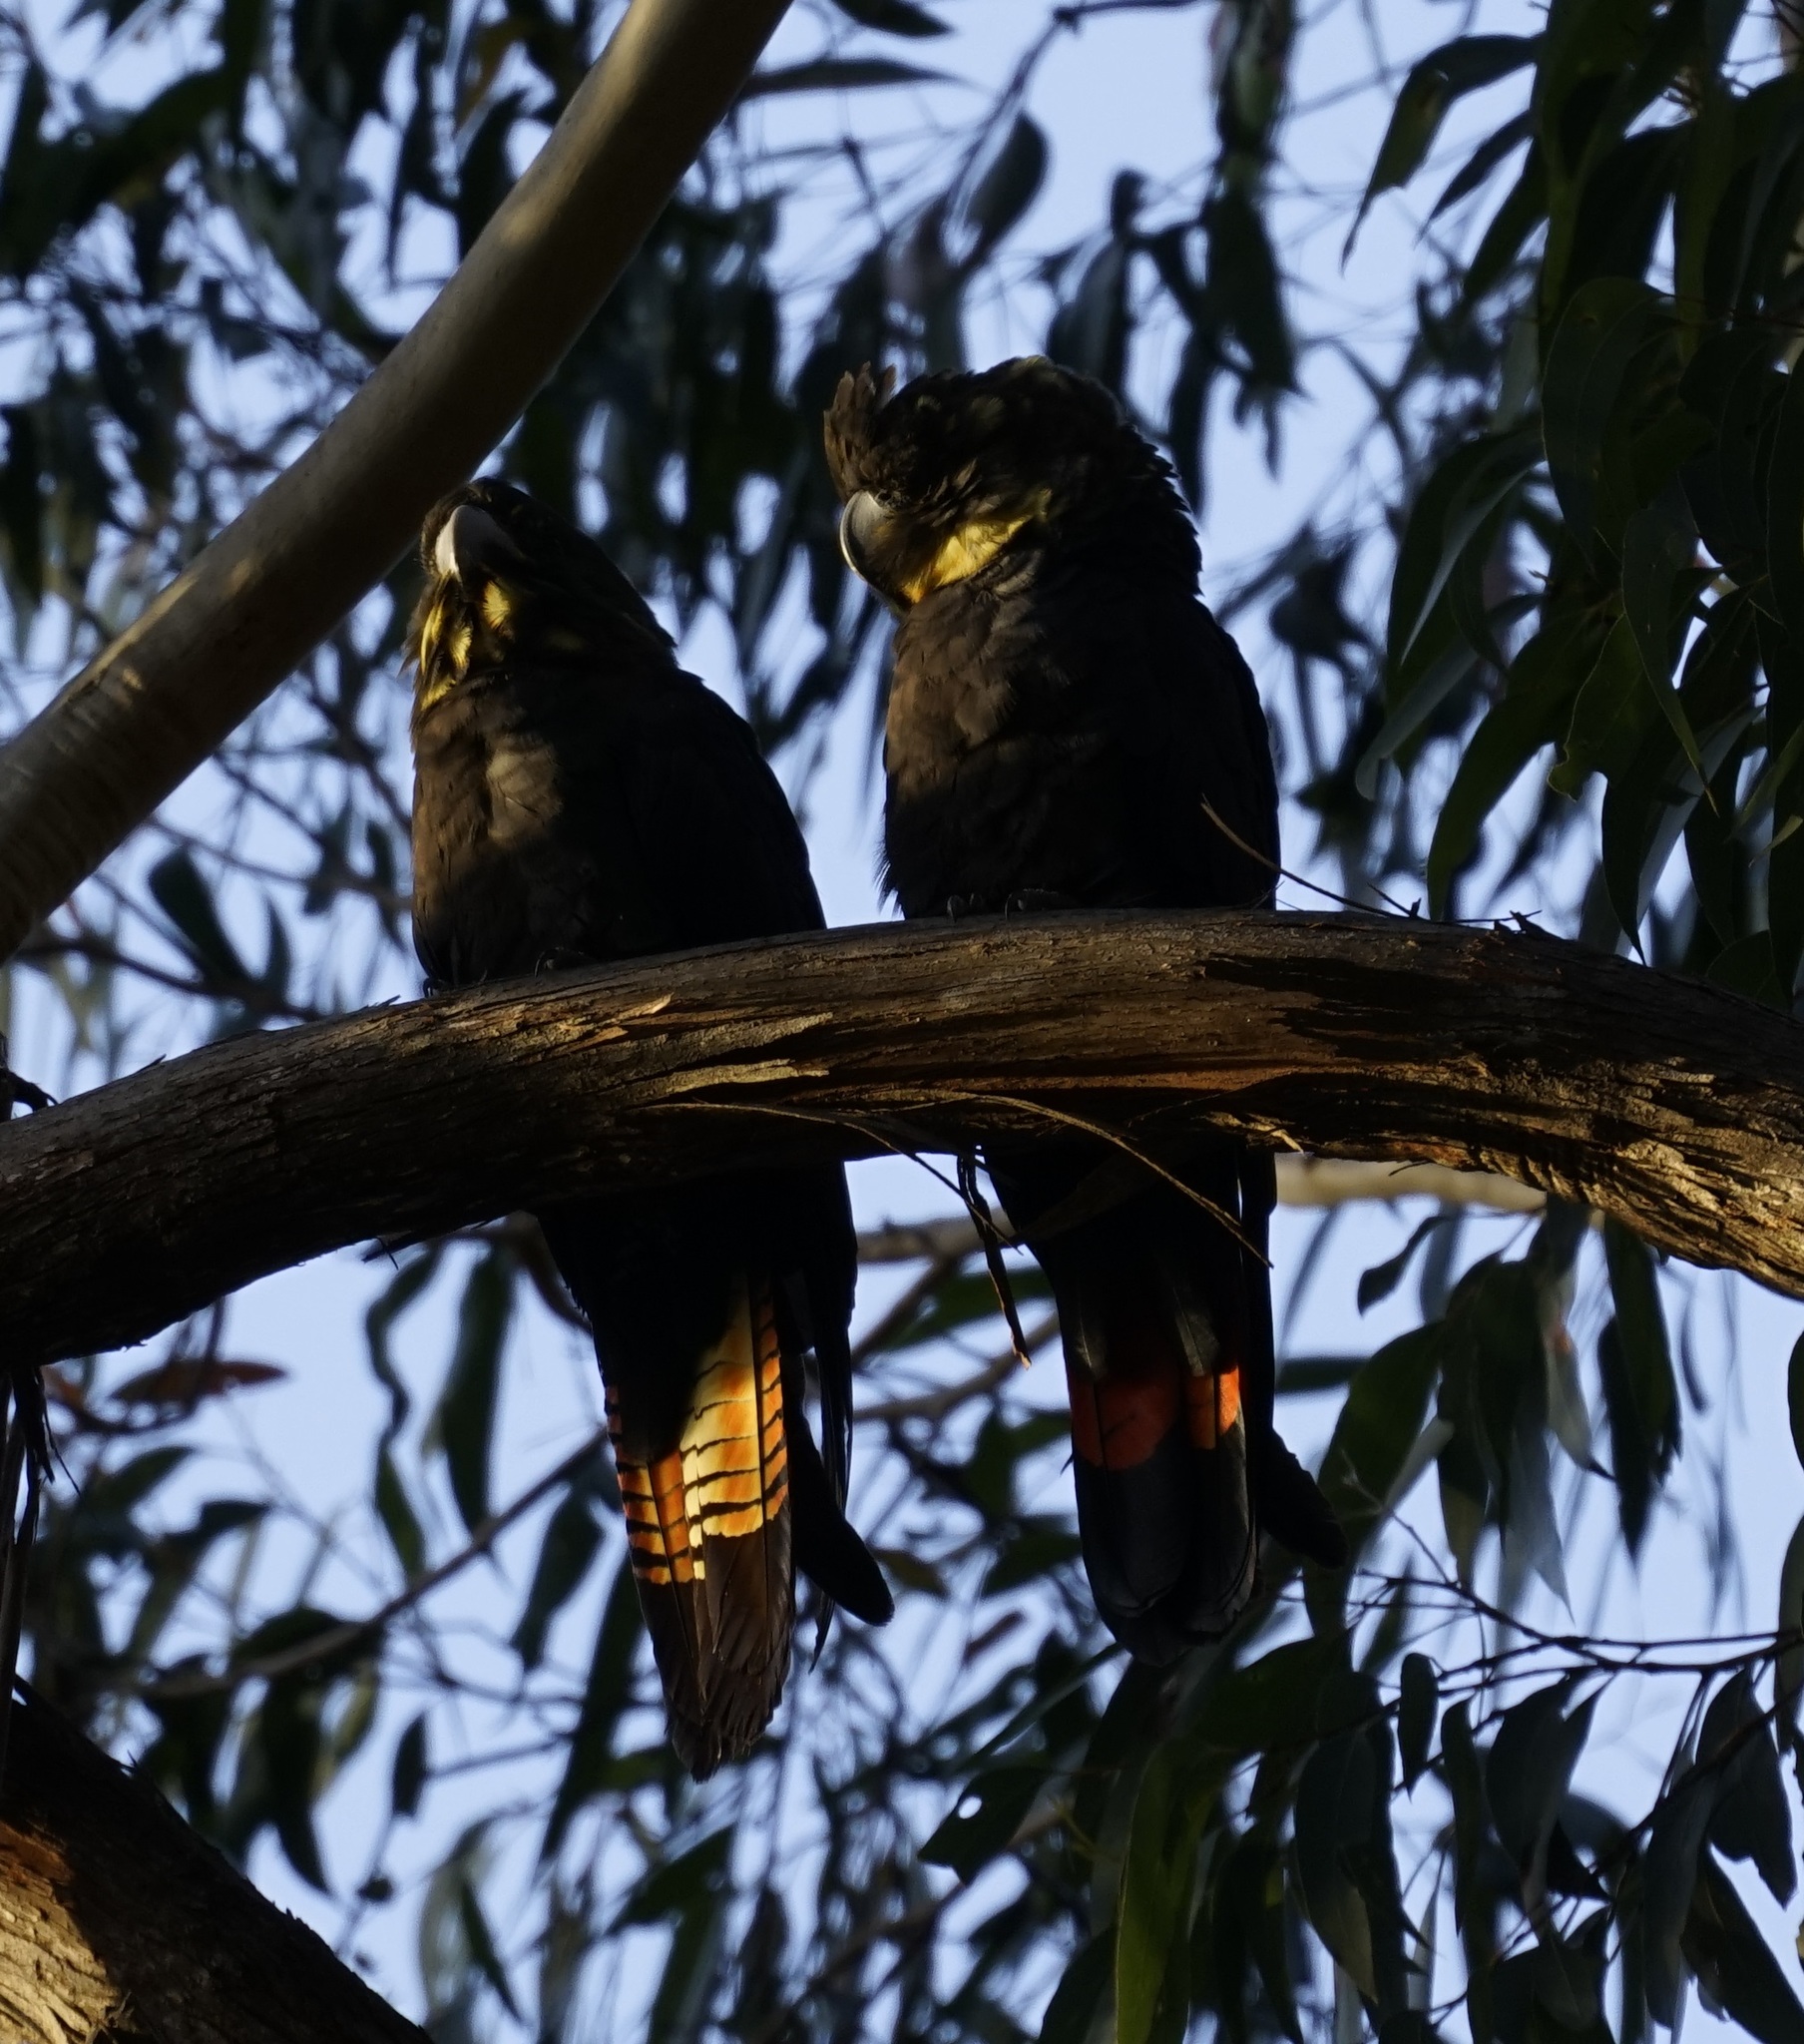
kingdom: Animalia
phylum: Chordata
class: Aves
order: Psittaciformes
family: Psittacidae
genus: Calyptorhynchus
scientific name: Calyptorhynchus lathami
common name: Glossy black cockatoo
